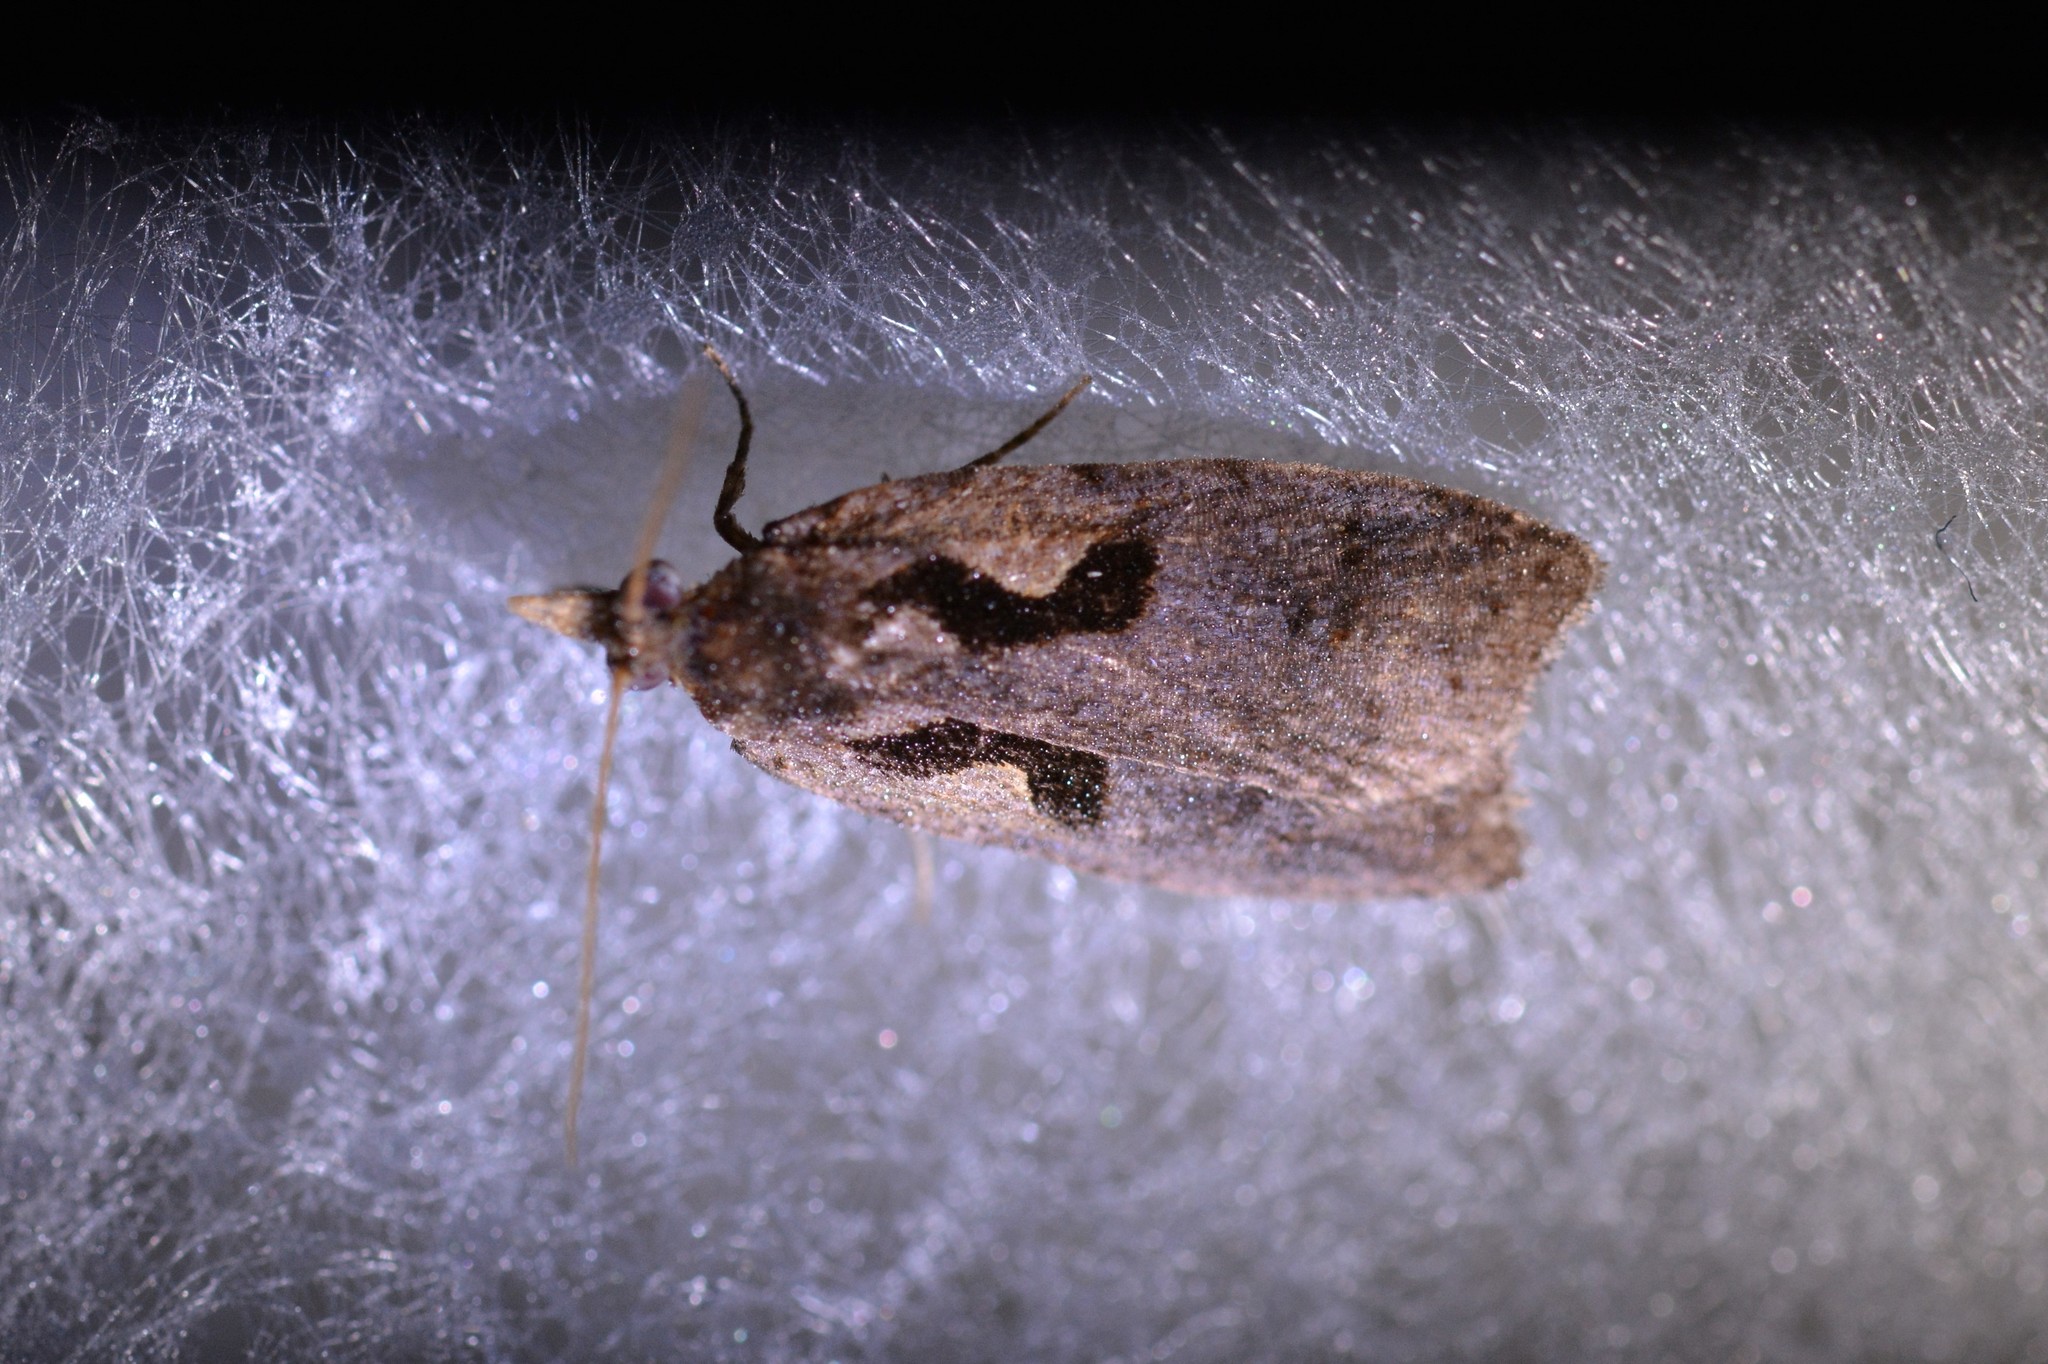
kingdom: Animalia
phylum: Arthropoda
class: Insecta
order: Lepidoptera
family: Tortricidae
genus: Cnephasia
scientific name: Cnephasia jactatana
